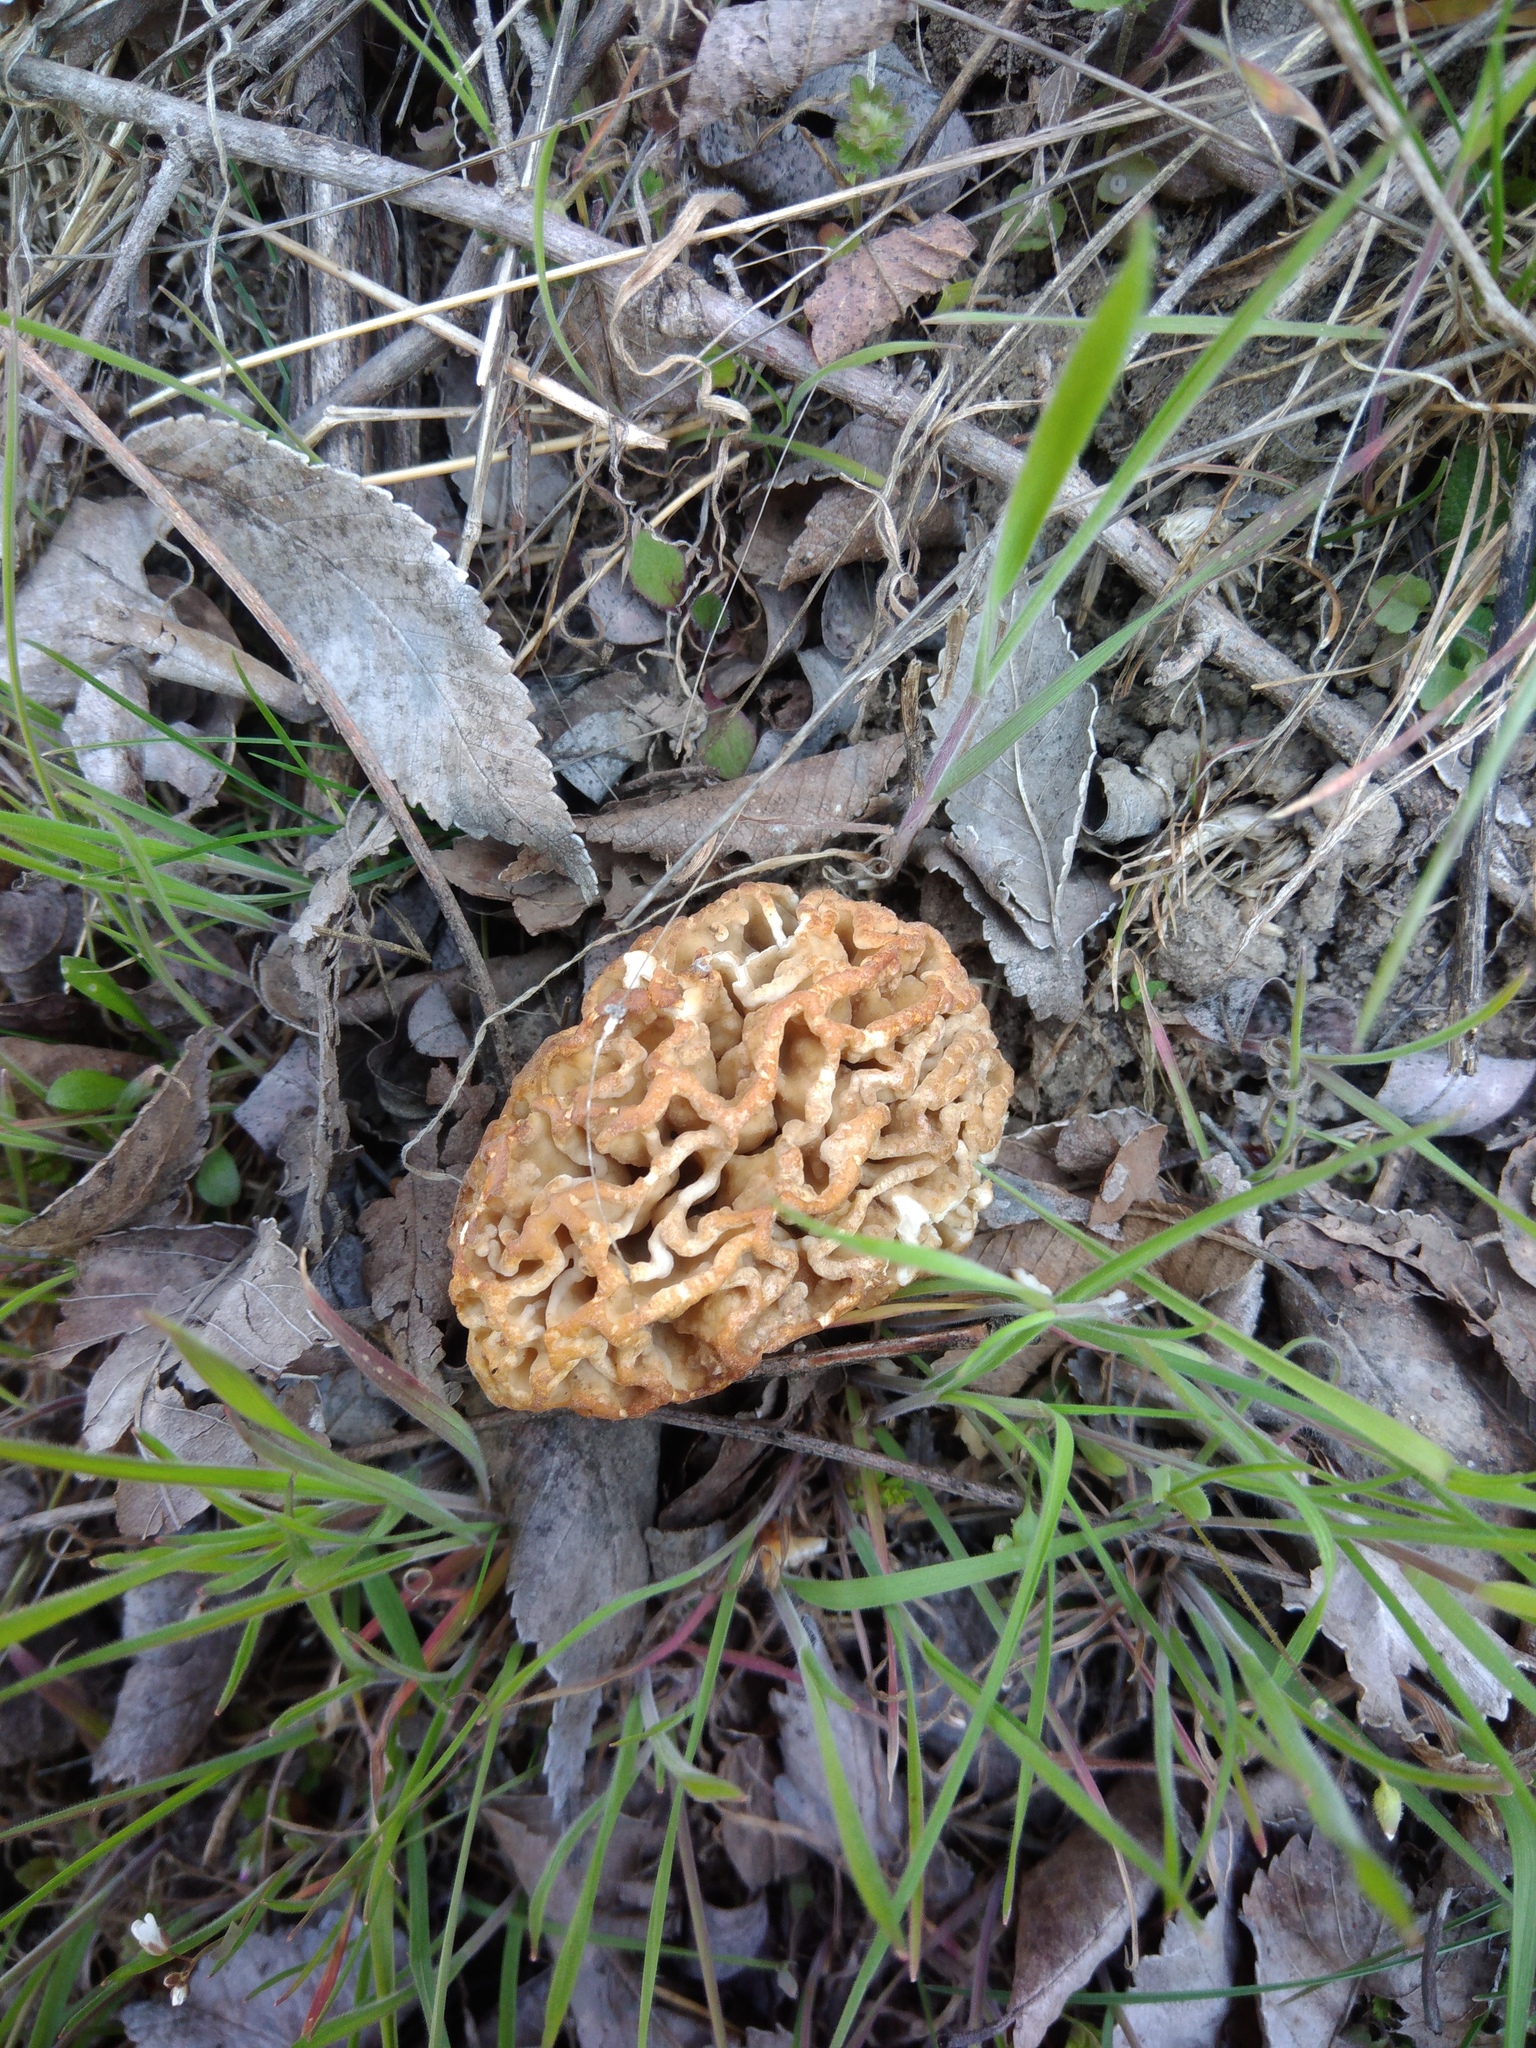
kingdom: Fungi
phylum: Ascomycota
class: Pezizomycetes
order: Pezizales
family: Morchellaceae
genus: Morchella
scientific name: Morchella steppicola
